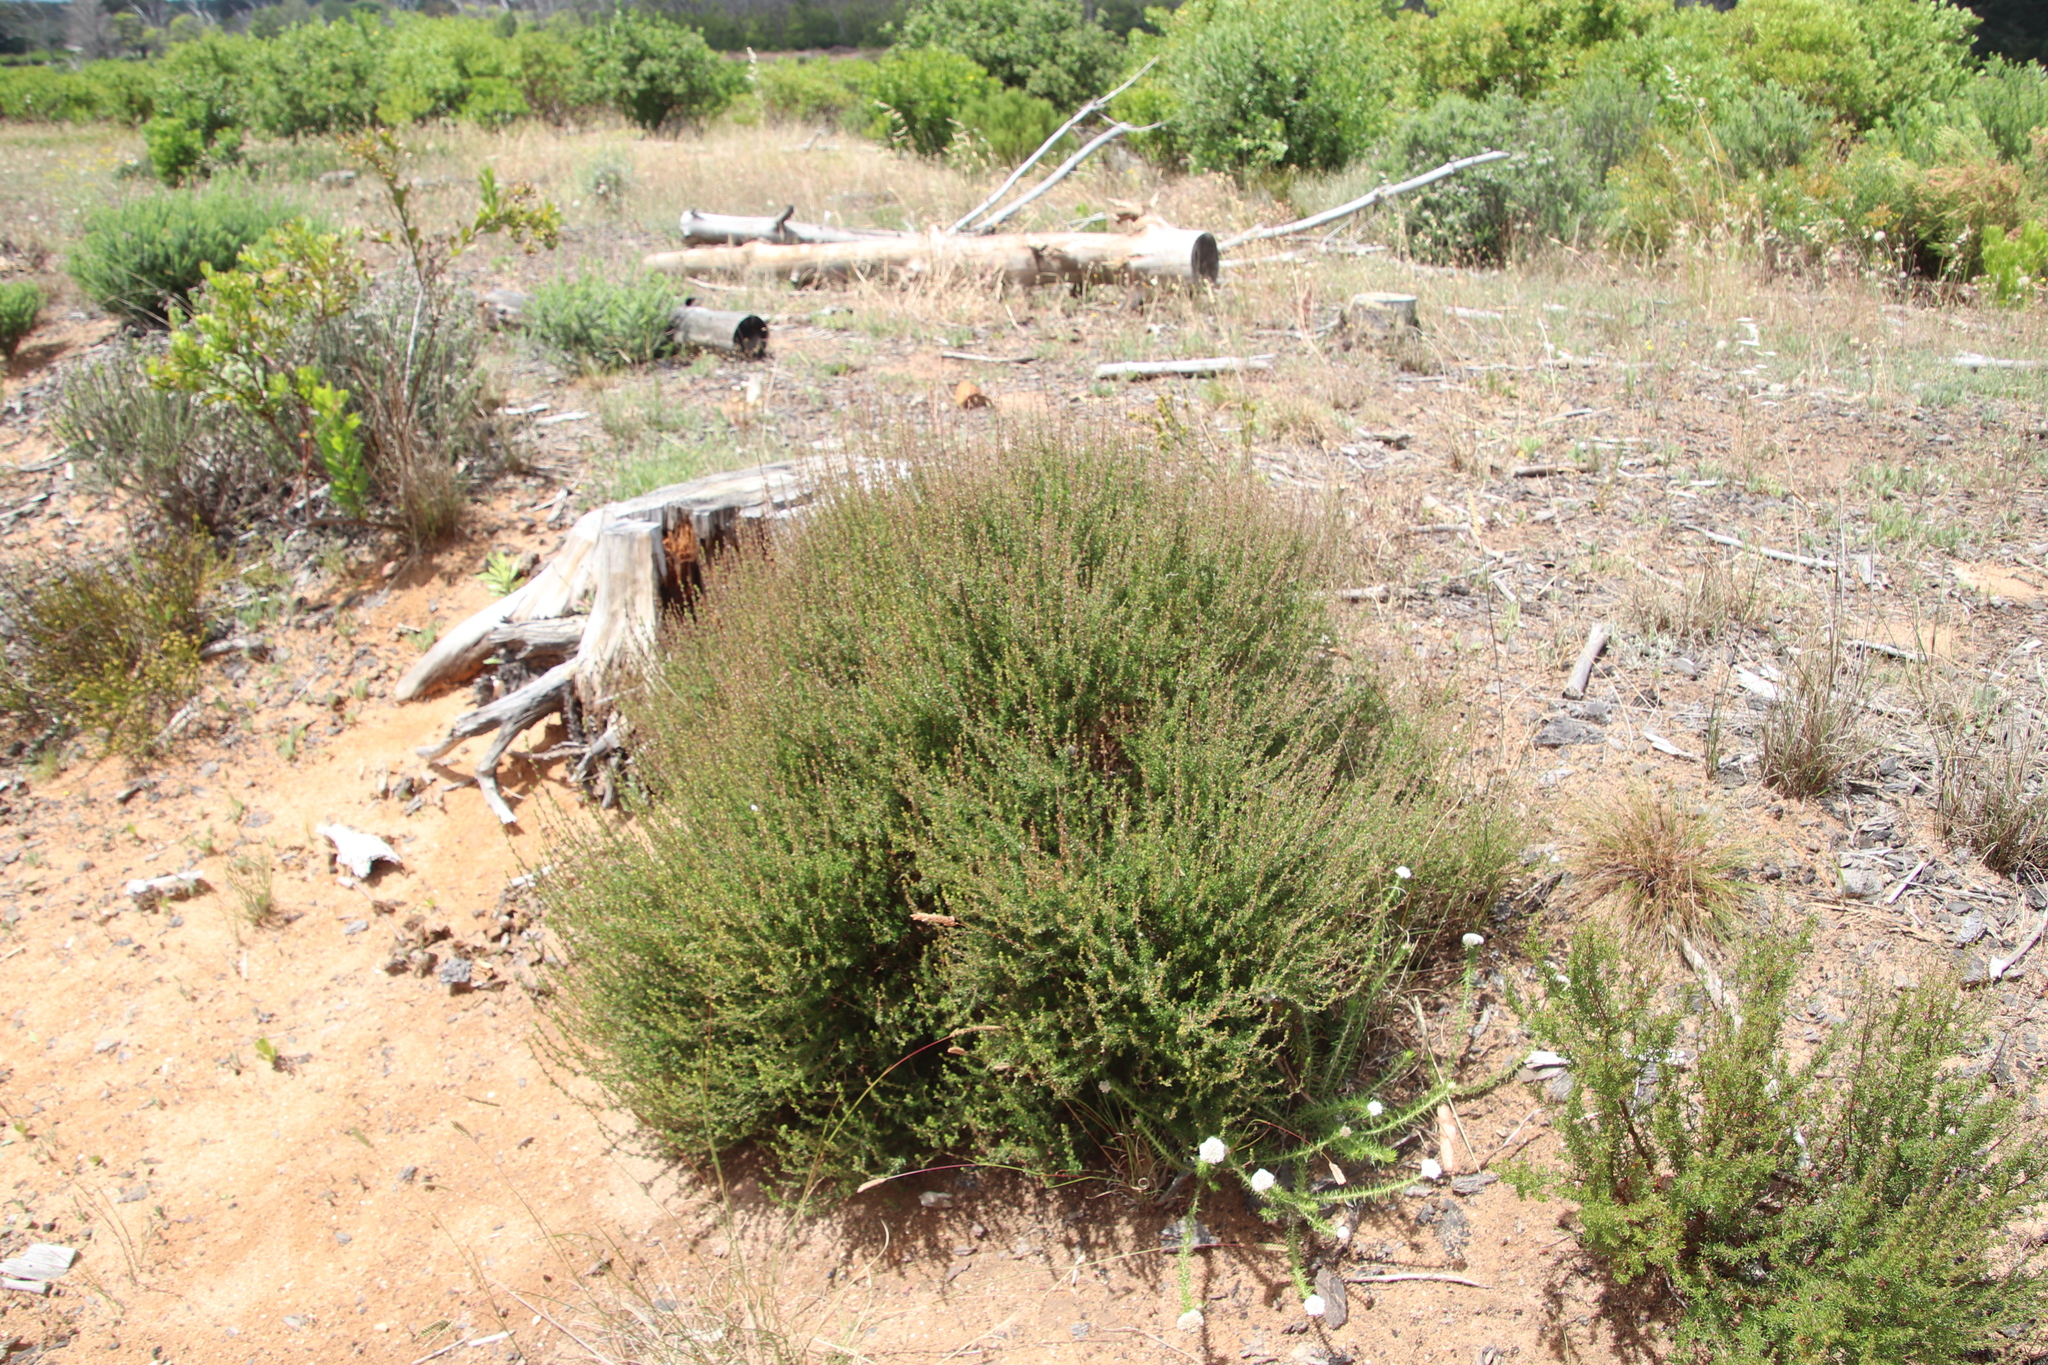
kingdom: Plantae
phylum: Tracheophyta
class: Magnoliopsida
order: Rosales
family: Rosaceae
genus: Cliffortia
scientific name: Cliffortia falcata
